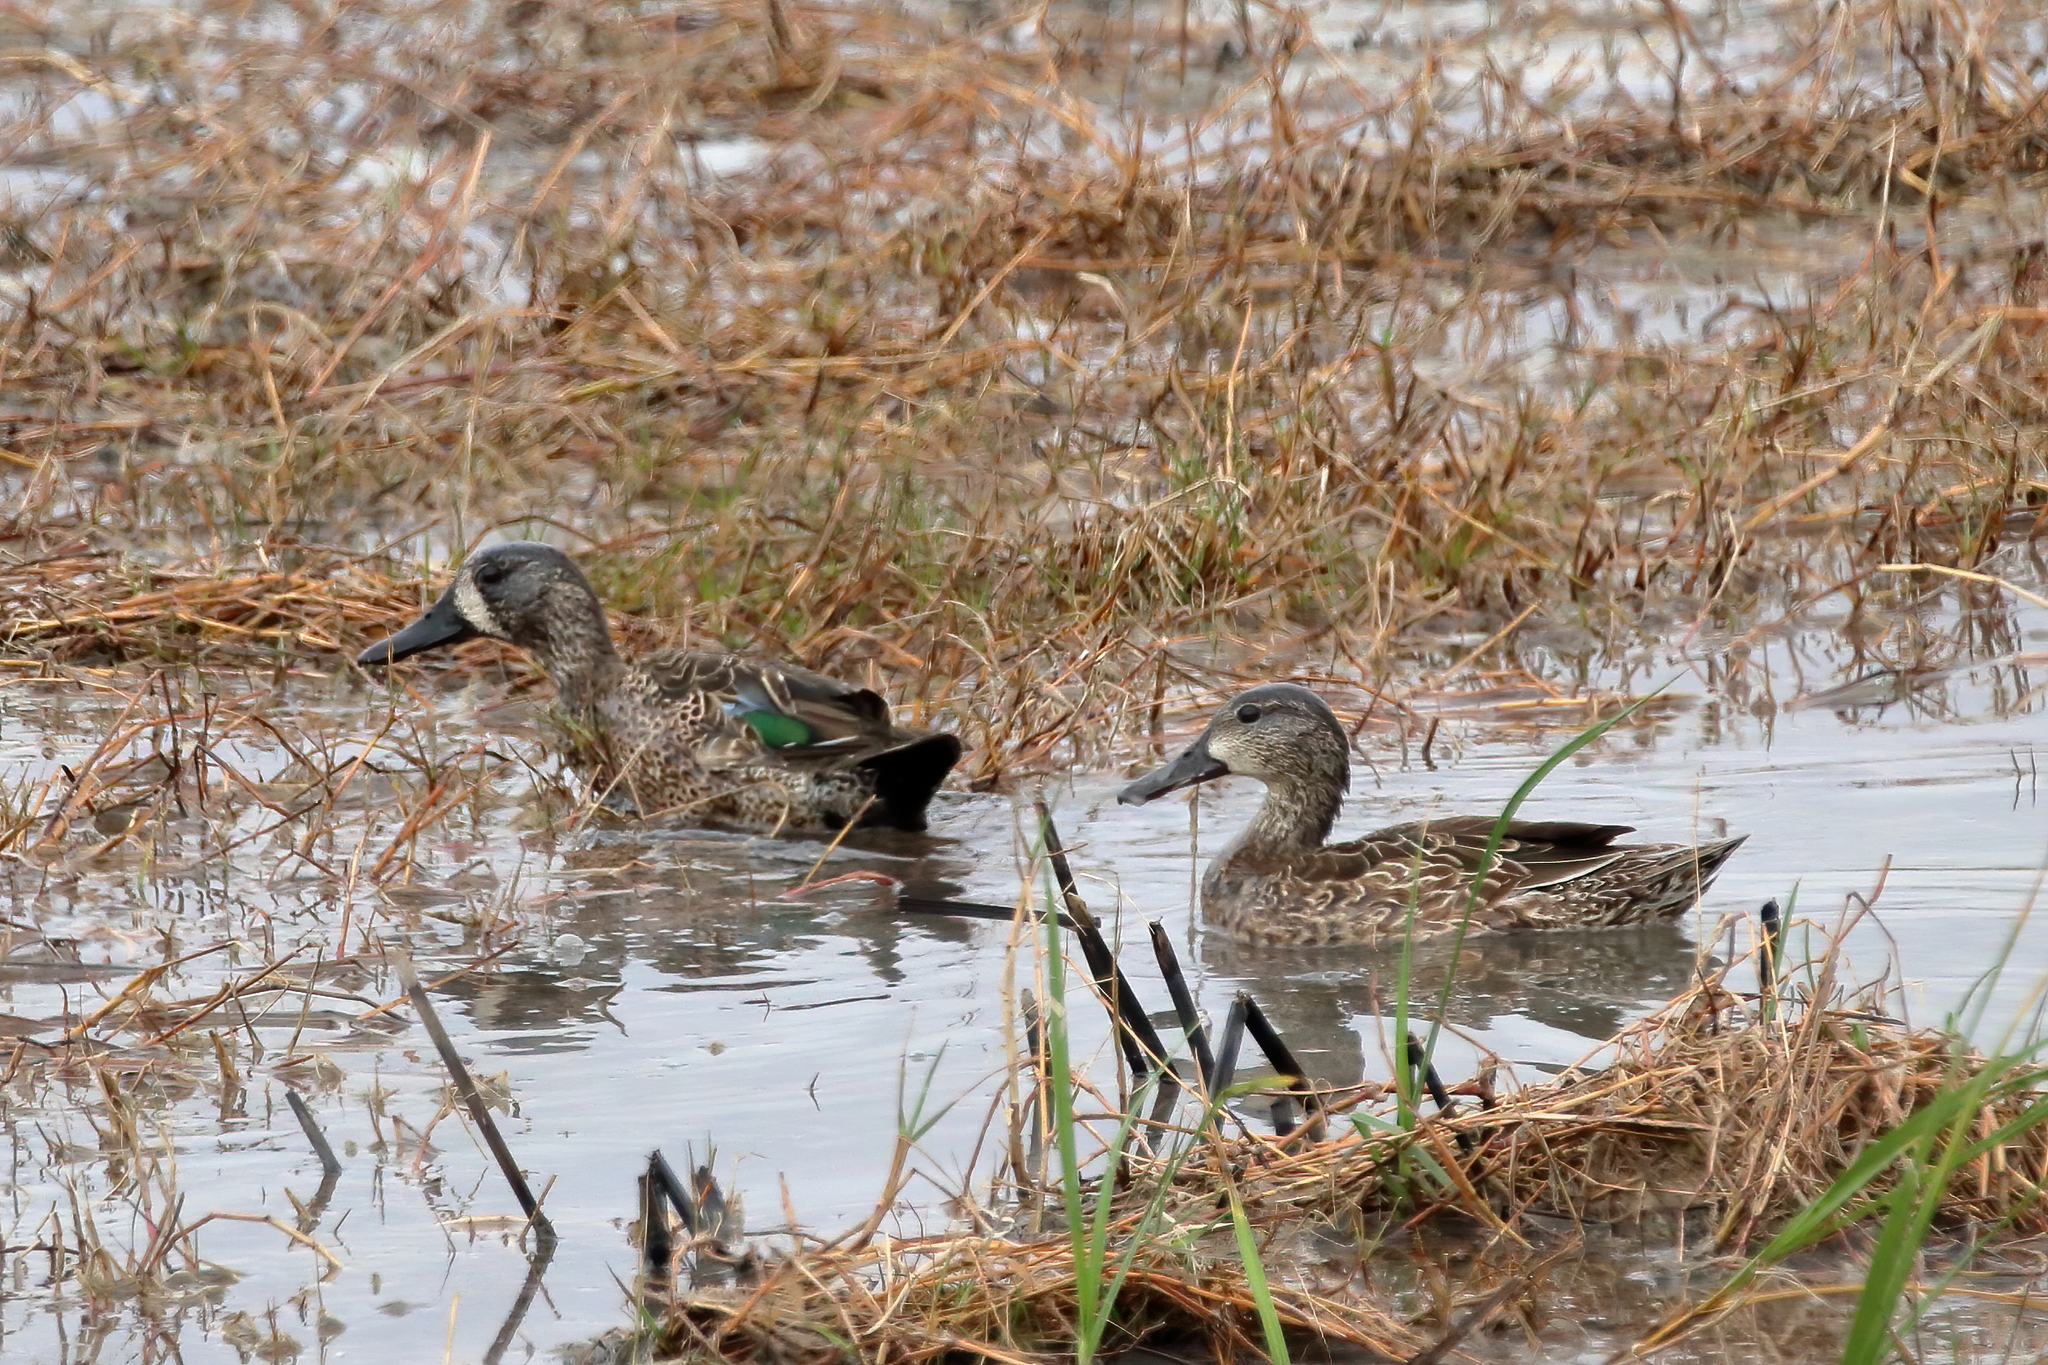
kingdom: Animalia
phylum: Chordata
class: Aves
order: Anseriformes
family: Anatidae
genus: Spatula
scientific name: Spatula discors
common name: Blue-winged teal
